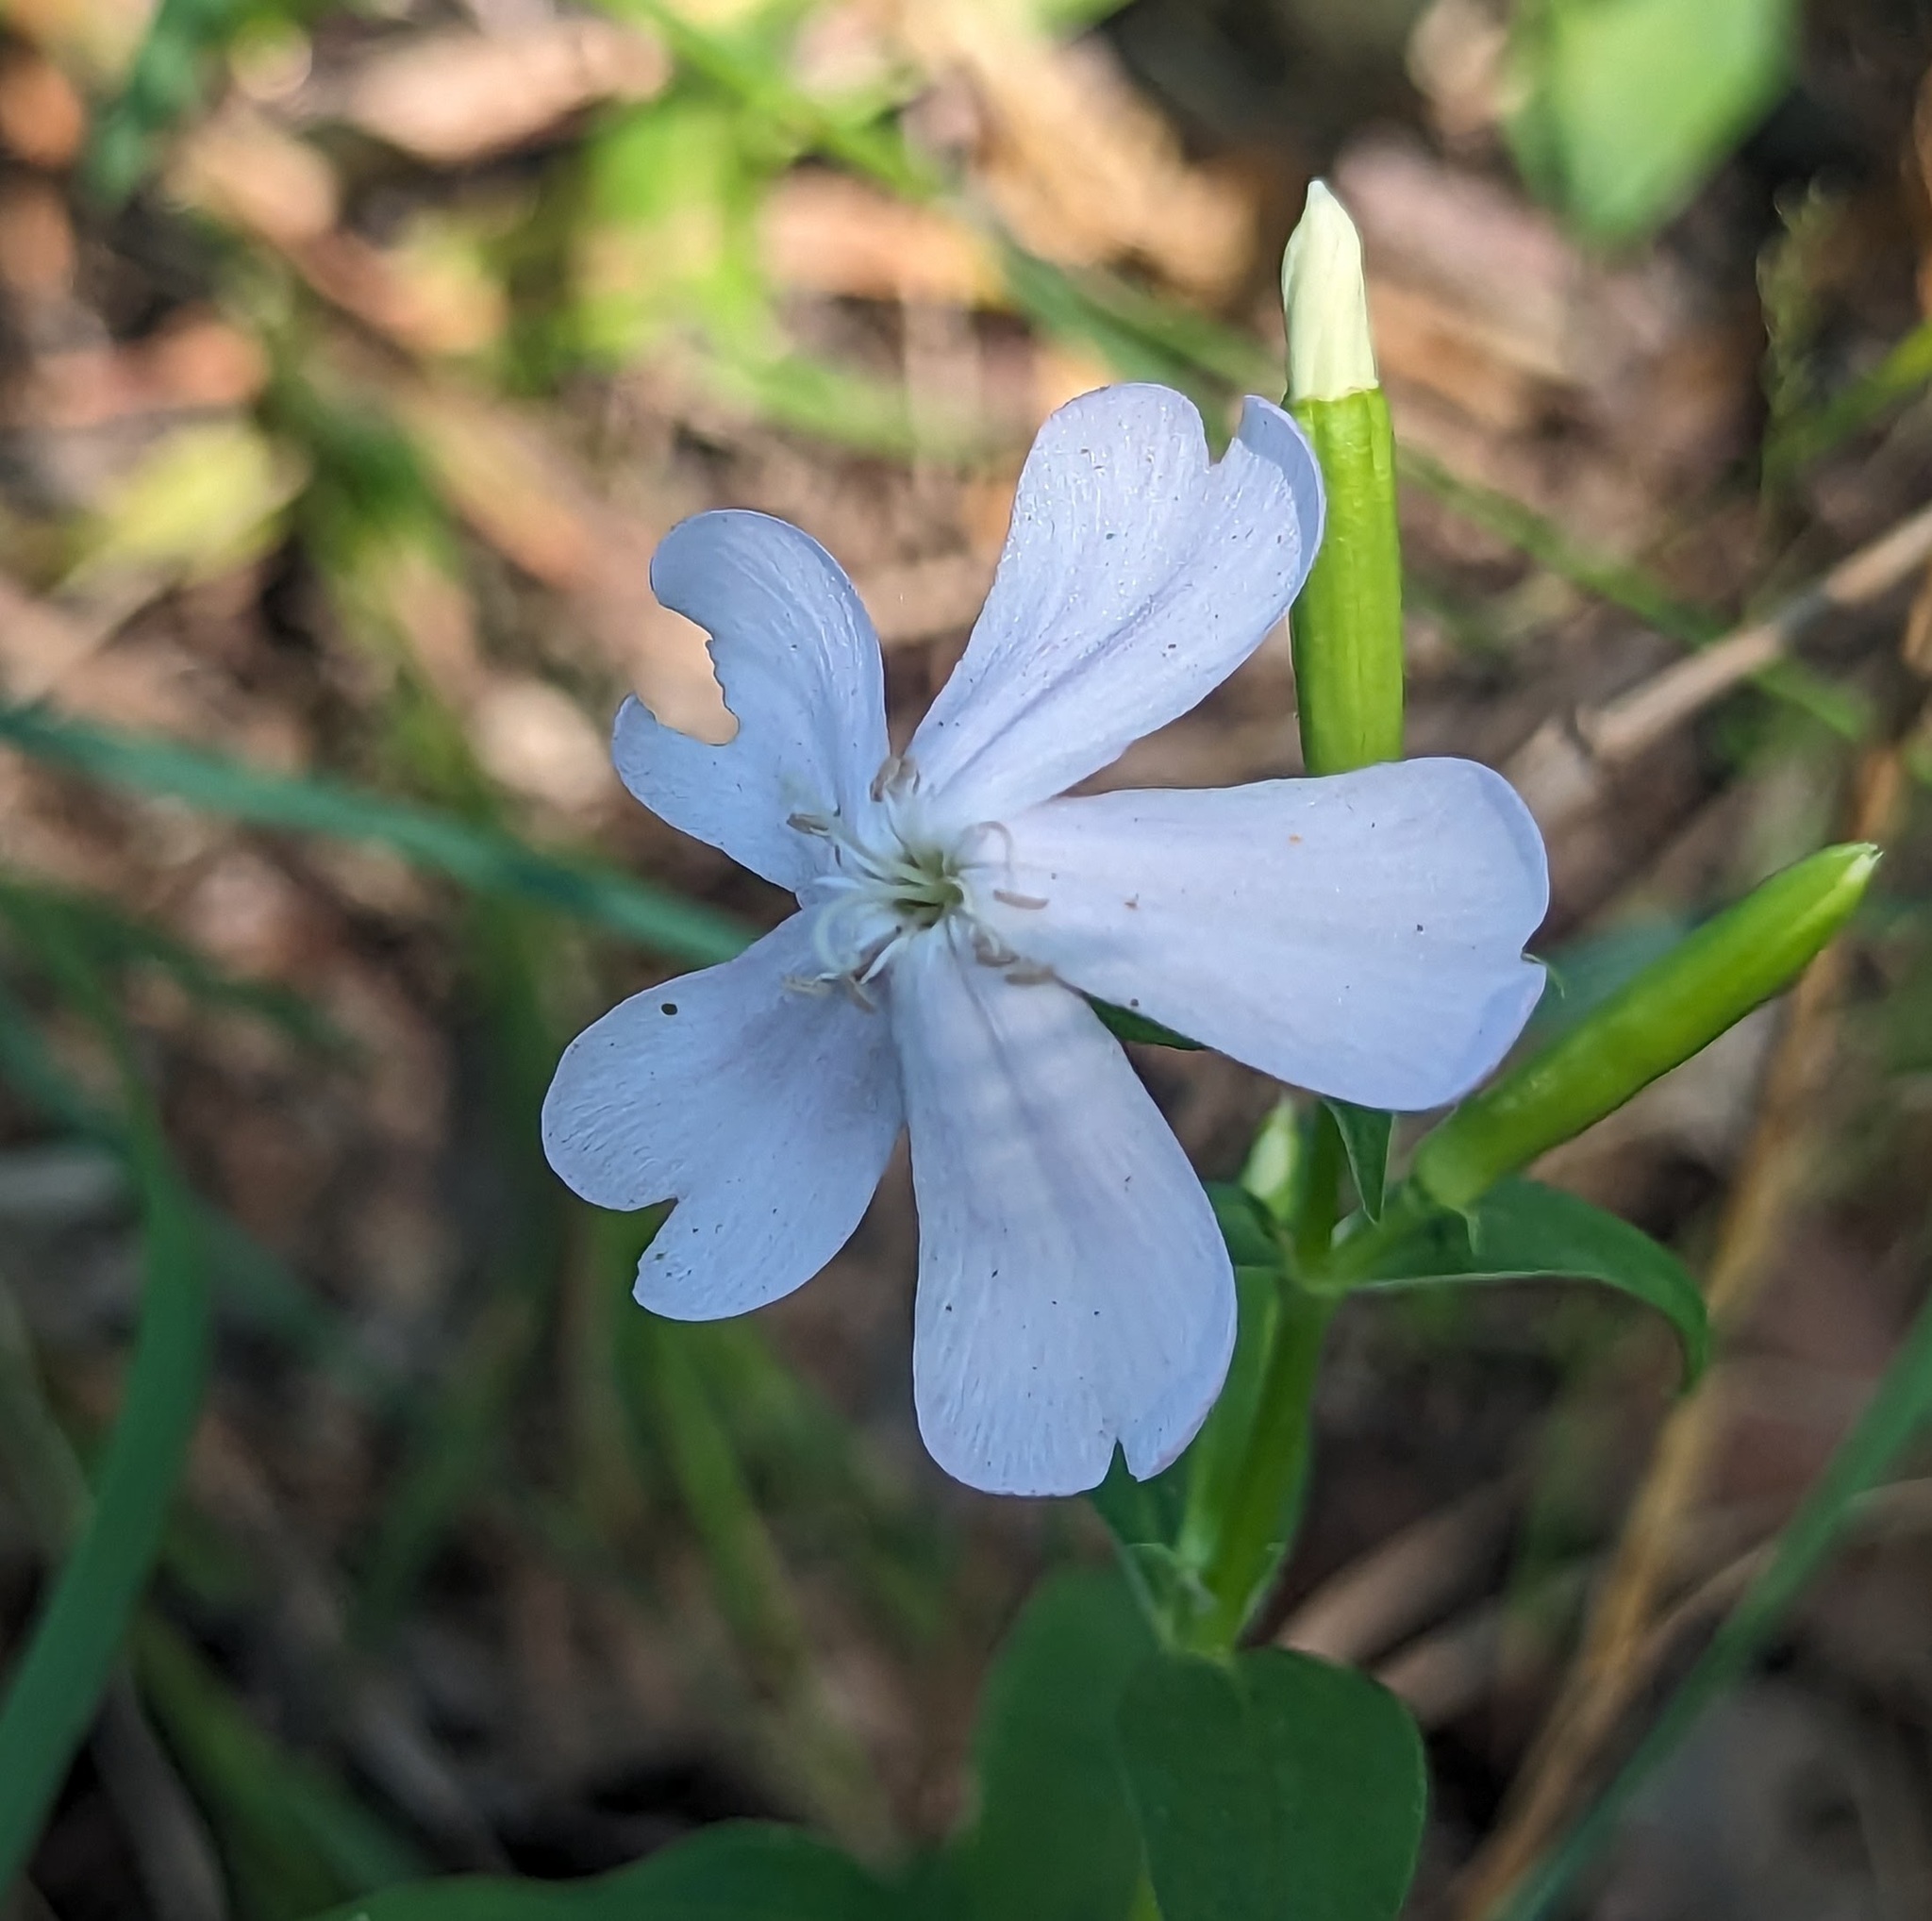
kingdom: Plantae
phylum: Tracheophyta
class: Magnoliopsida
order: Caryophyllales
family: Caryophyllaceae
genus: Saponaria
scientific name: Saponaria officinalis
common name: Soapwort
